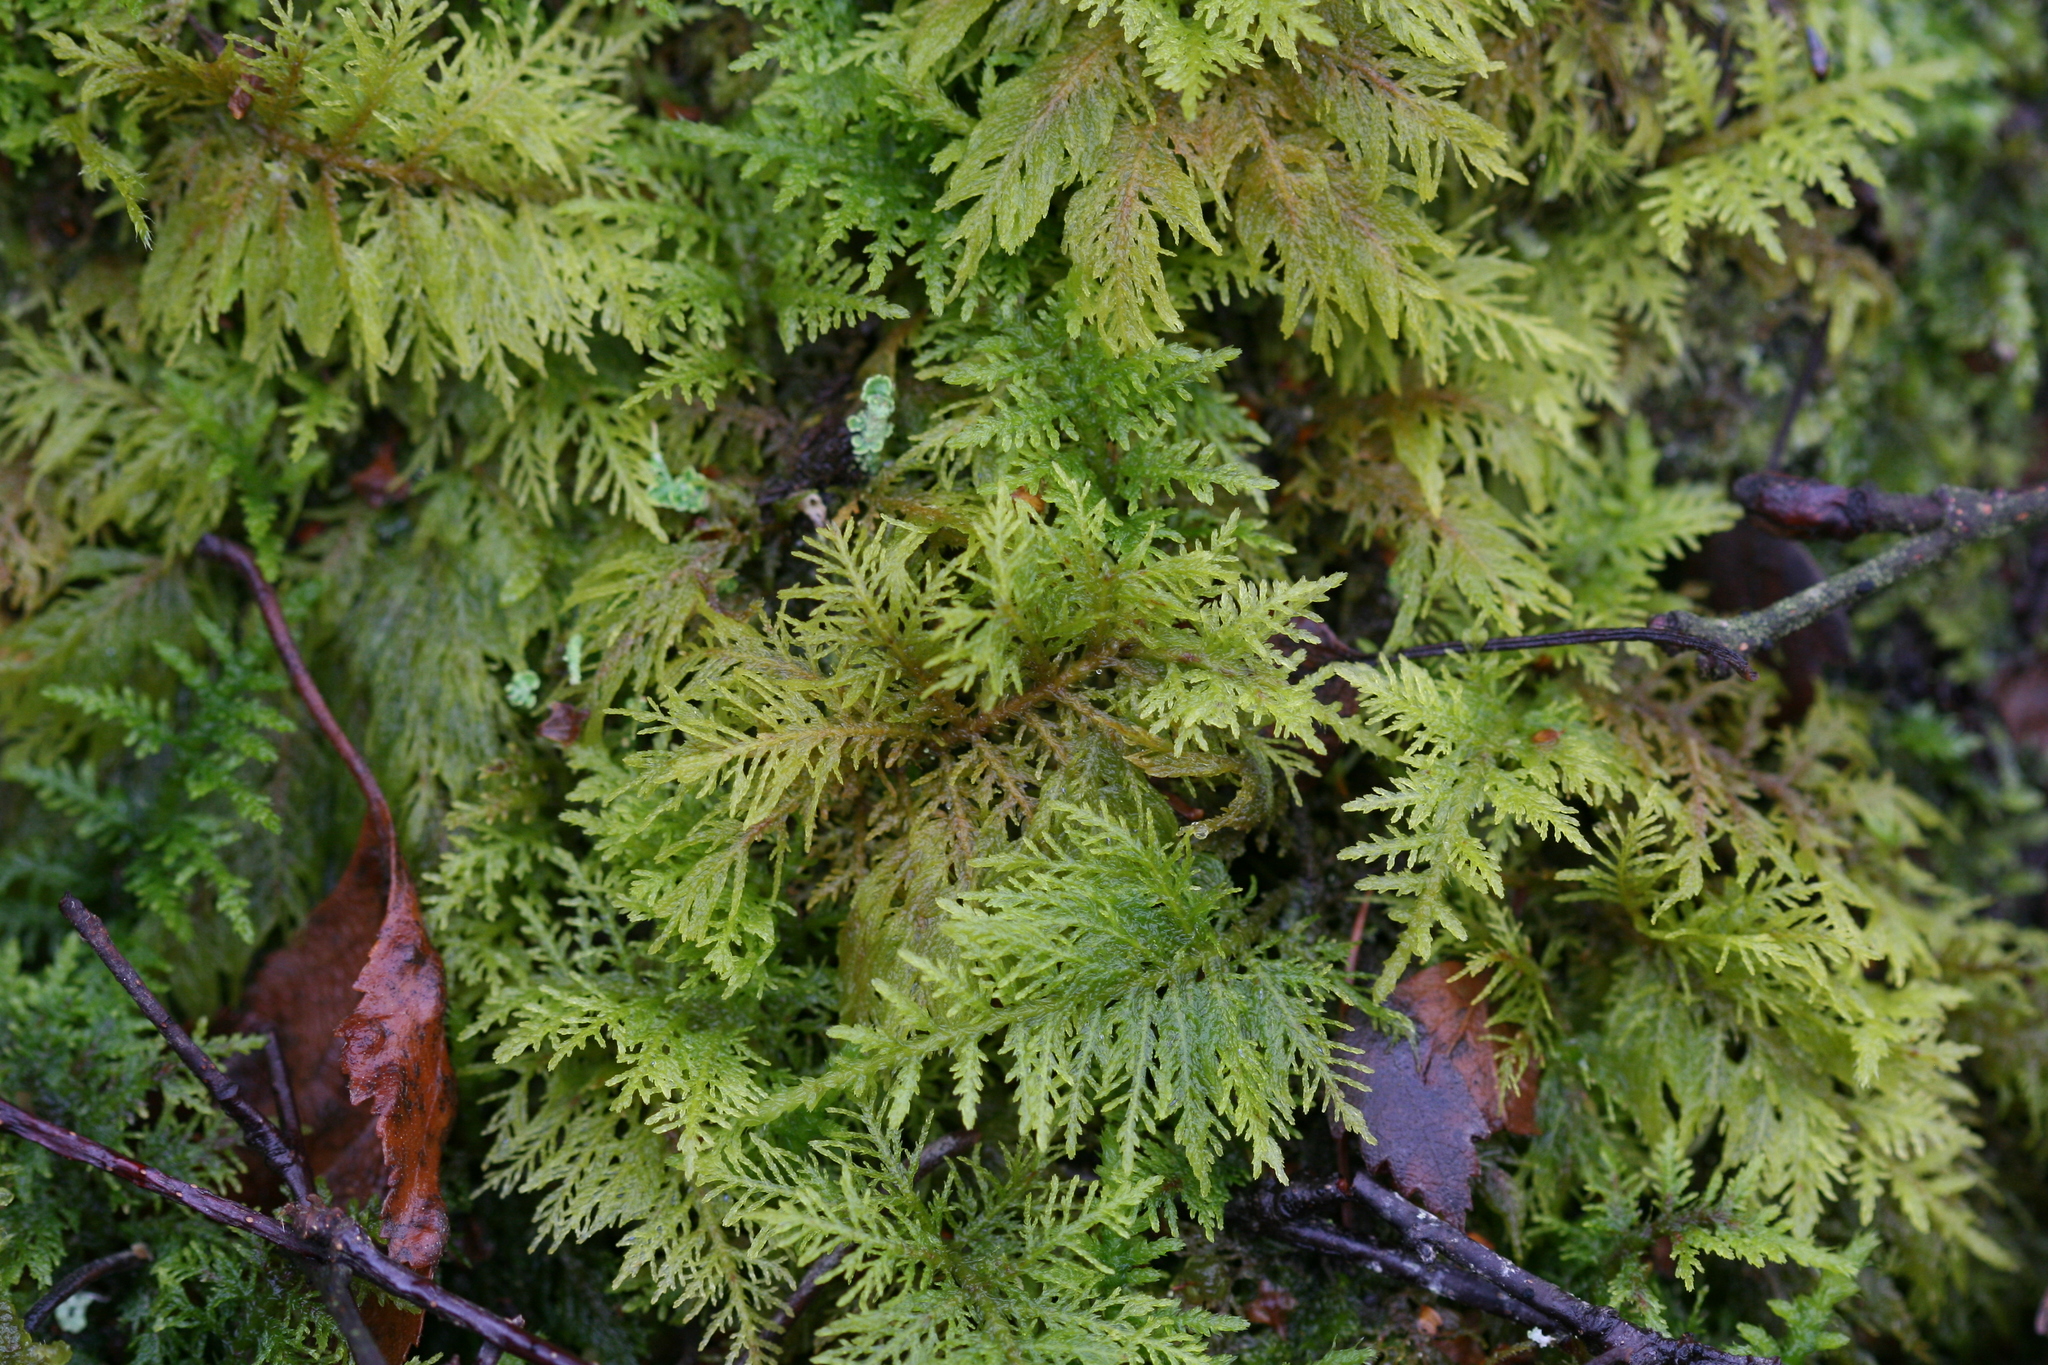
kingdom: Plantae
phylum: Bryophyta
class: Bryopsida
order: Hypnales
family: Thuidiaceae
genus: Thuidium
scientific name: Thuidium tamariscinum
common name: Common tamarisk-moss
